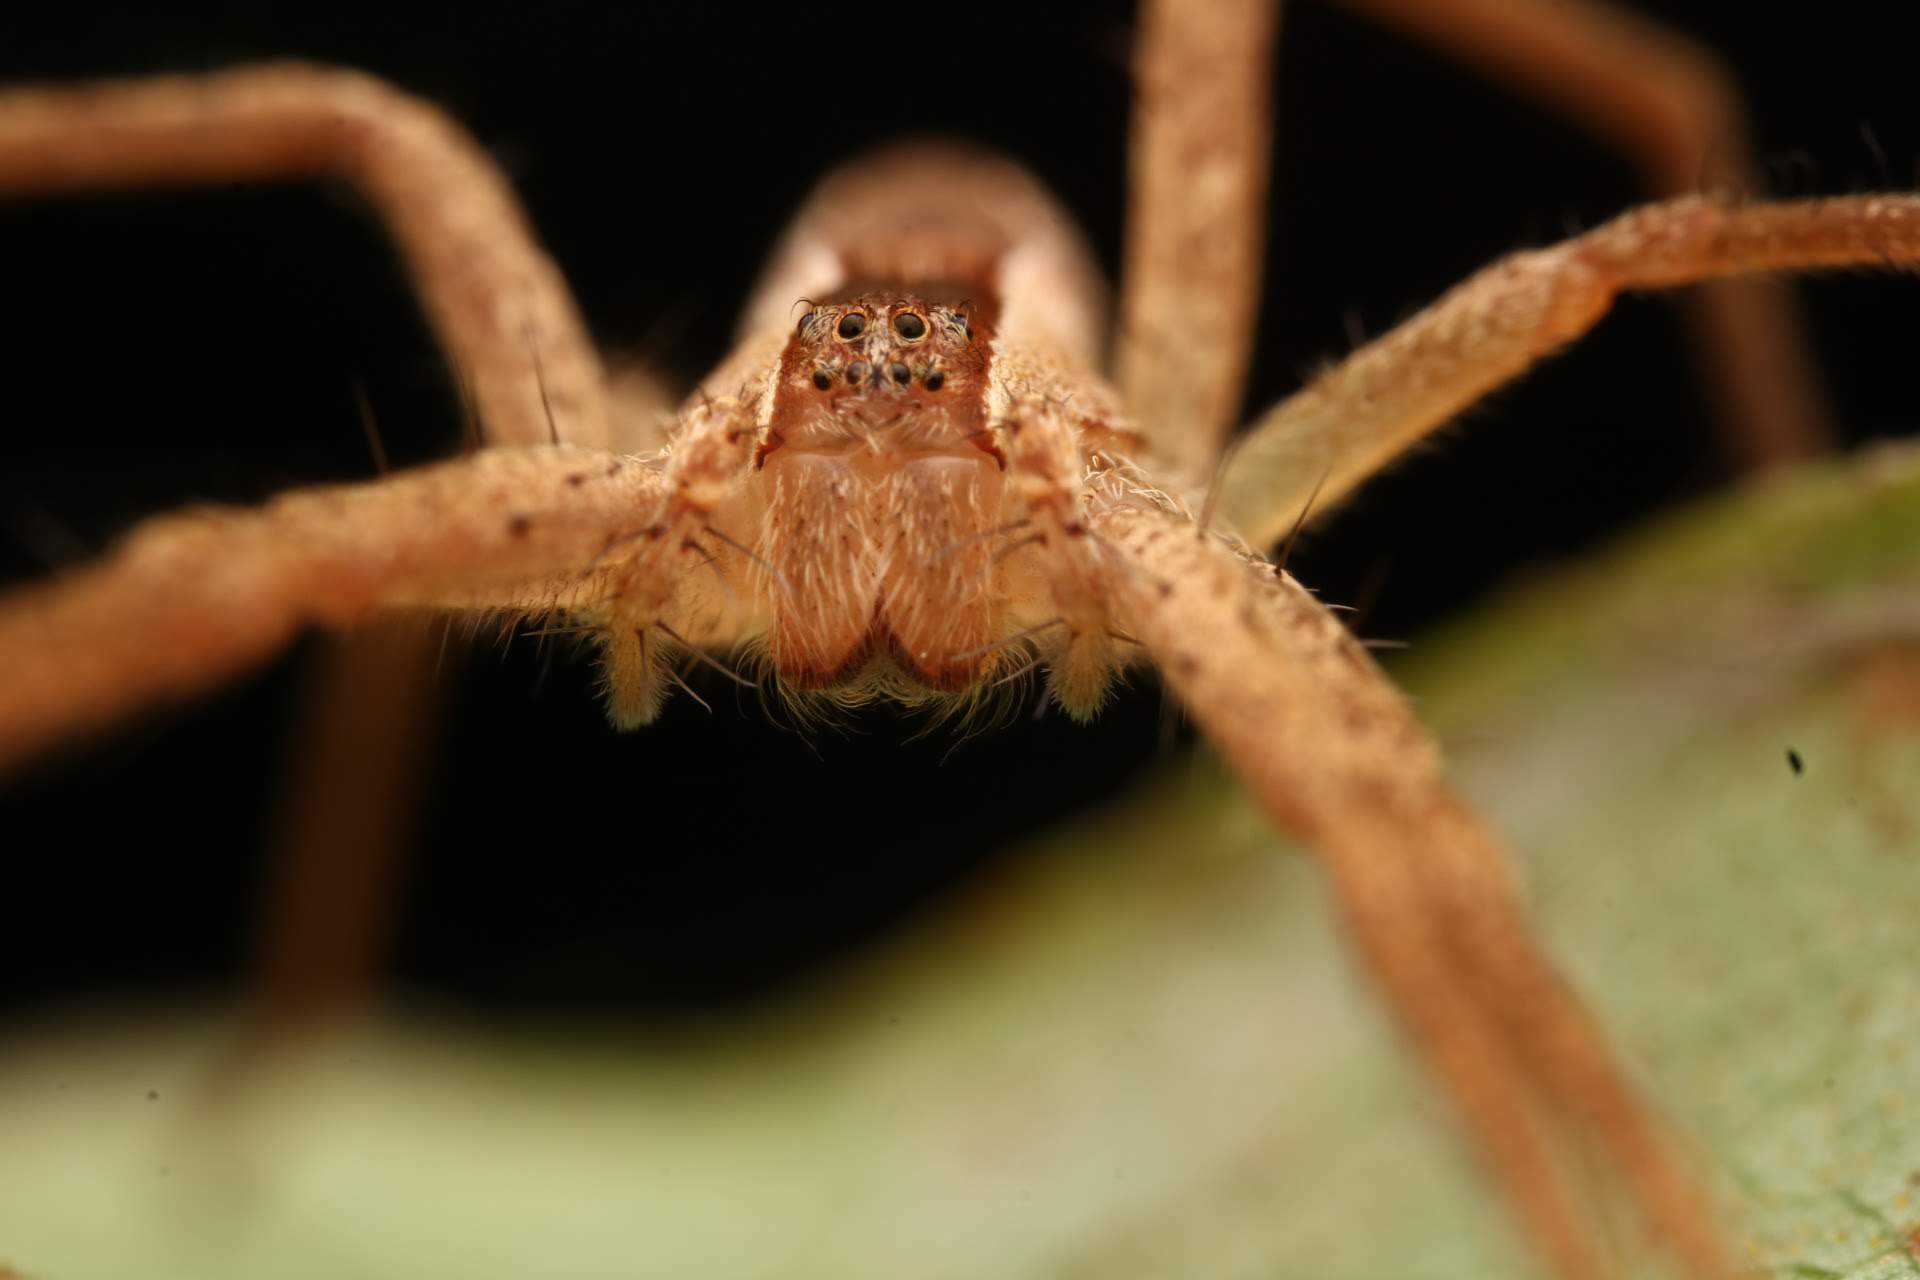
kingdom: Animalia
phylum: Arthropoda
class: Arachnida
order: Araneae
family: Pisauridae
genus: Pisaurina
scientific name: Pisaurina mira
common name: American nursery web spider
